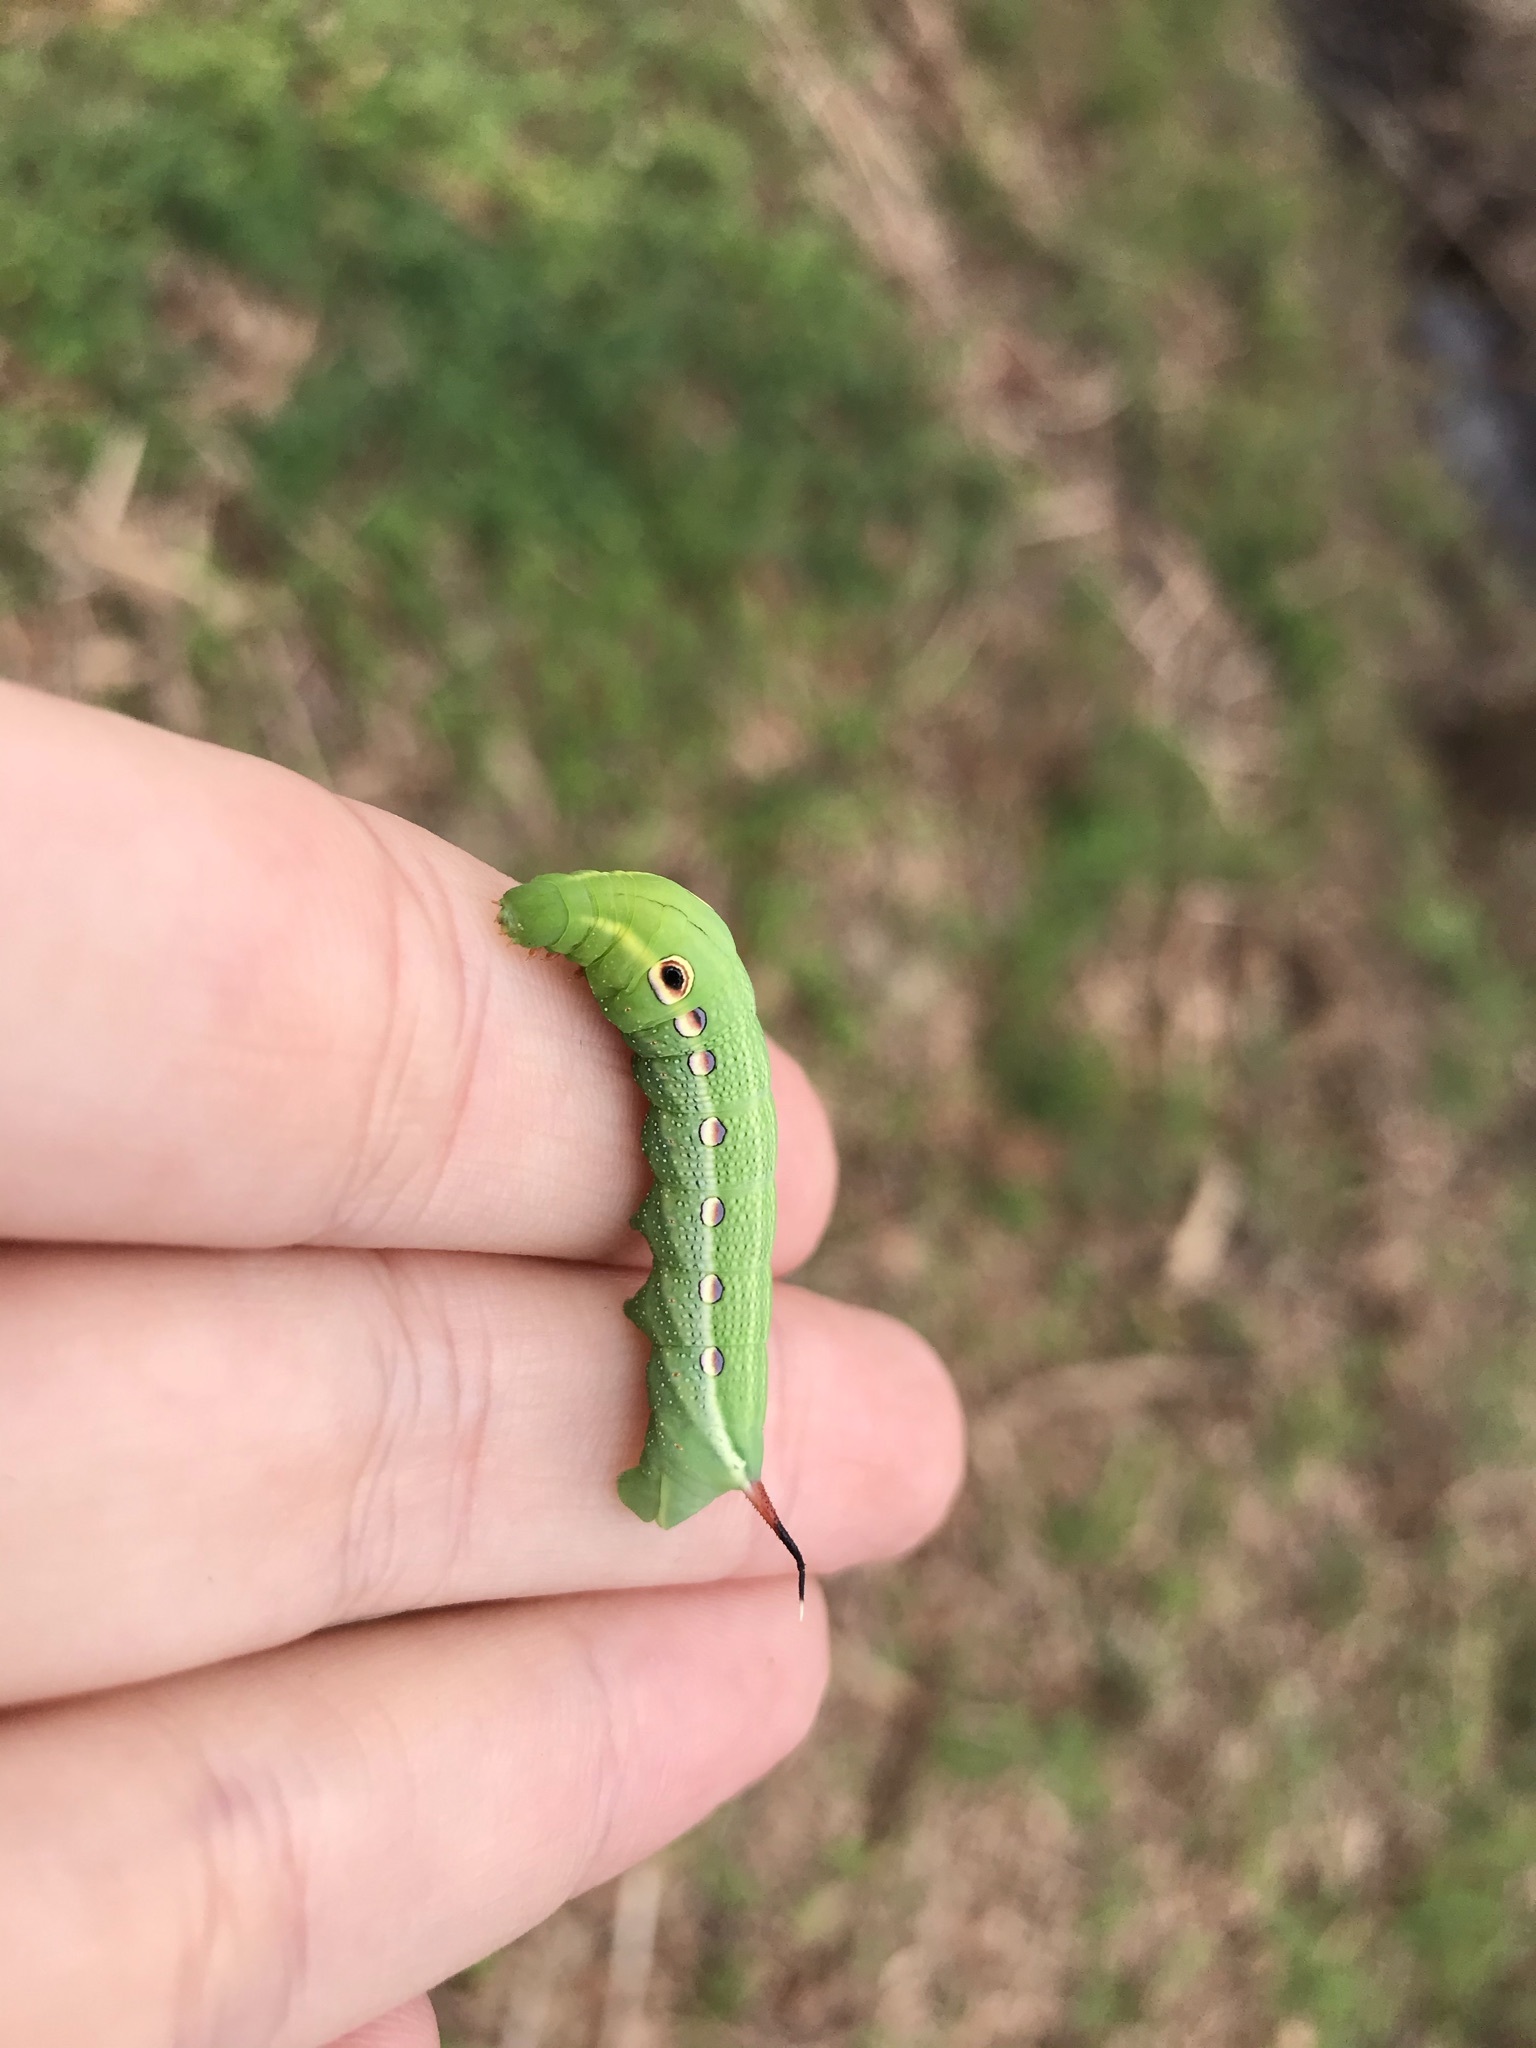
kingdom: Animalia
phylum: Arthropoda
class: Insecta
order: Lepidoptera
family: Sphingidae
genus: Xylophanes
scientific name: Xylophanes tersa
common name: Tersa sphinx
